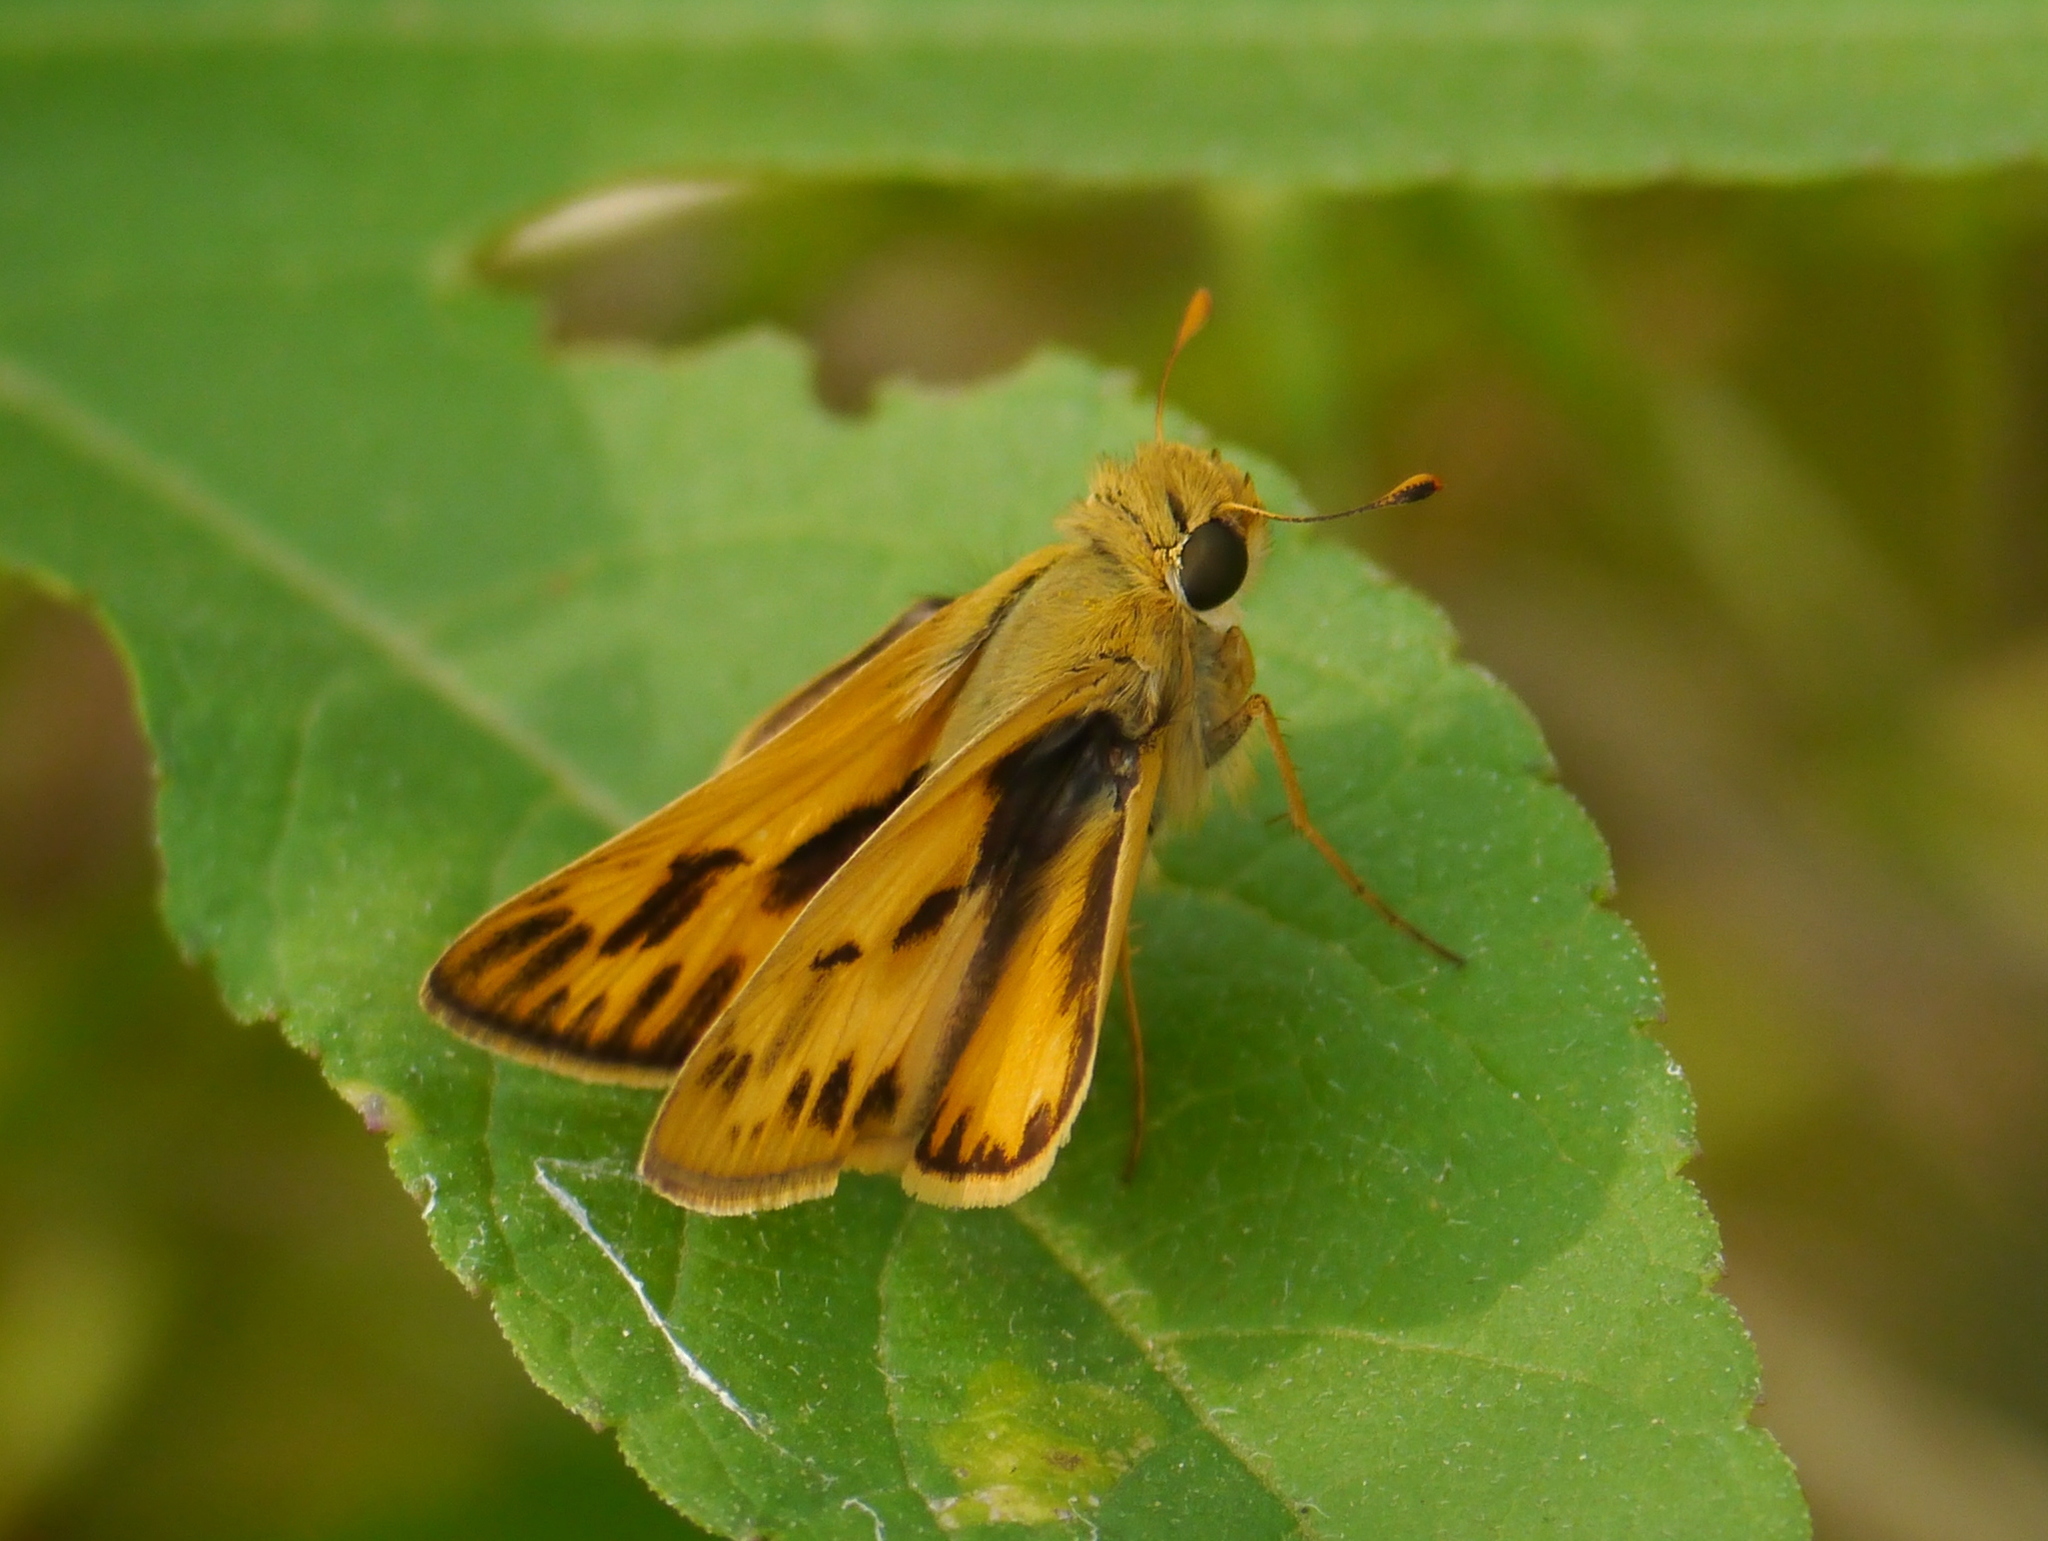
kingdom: Animalia
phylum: Arthropoda
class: Insecta
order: Lepidoptera
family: Hesperiidae
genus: Hylephila
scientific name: Hylephila phyleus
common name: Fiery skipper
